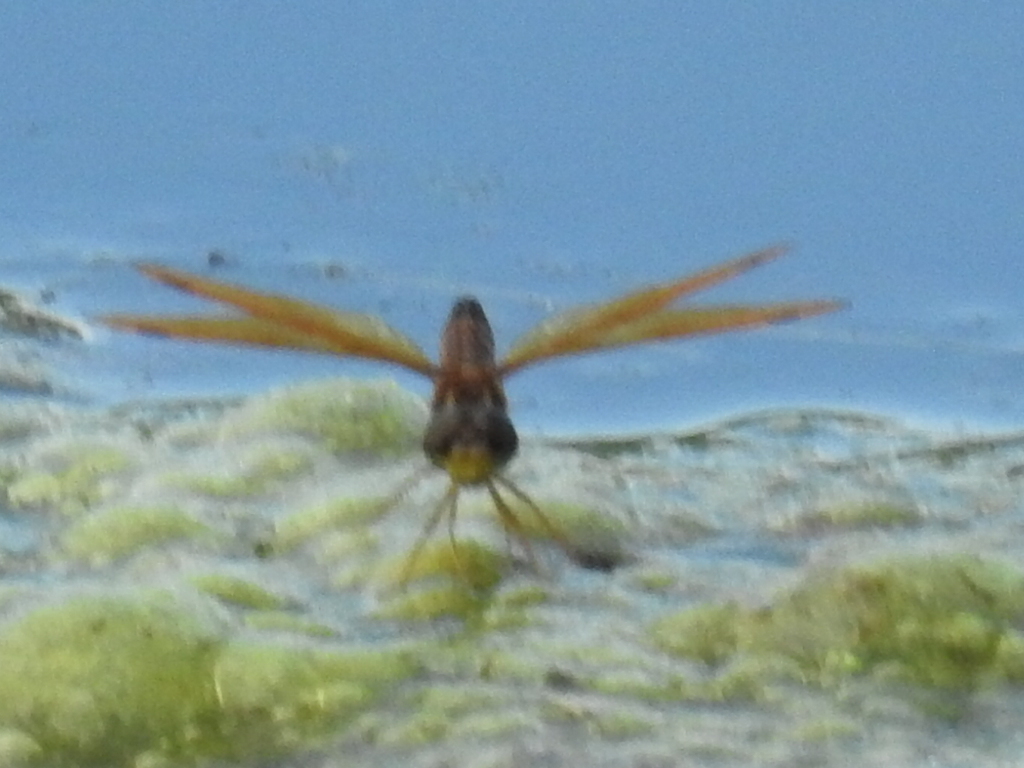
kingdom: Animalia
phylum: Arthropoda
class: Insecta
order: Odonata
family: Libellulidae
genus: Perithemis
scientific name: Perithemis tenera
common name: Eastern amberwing
